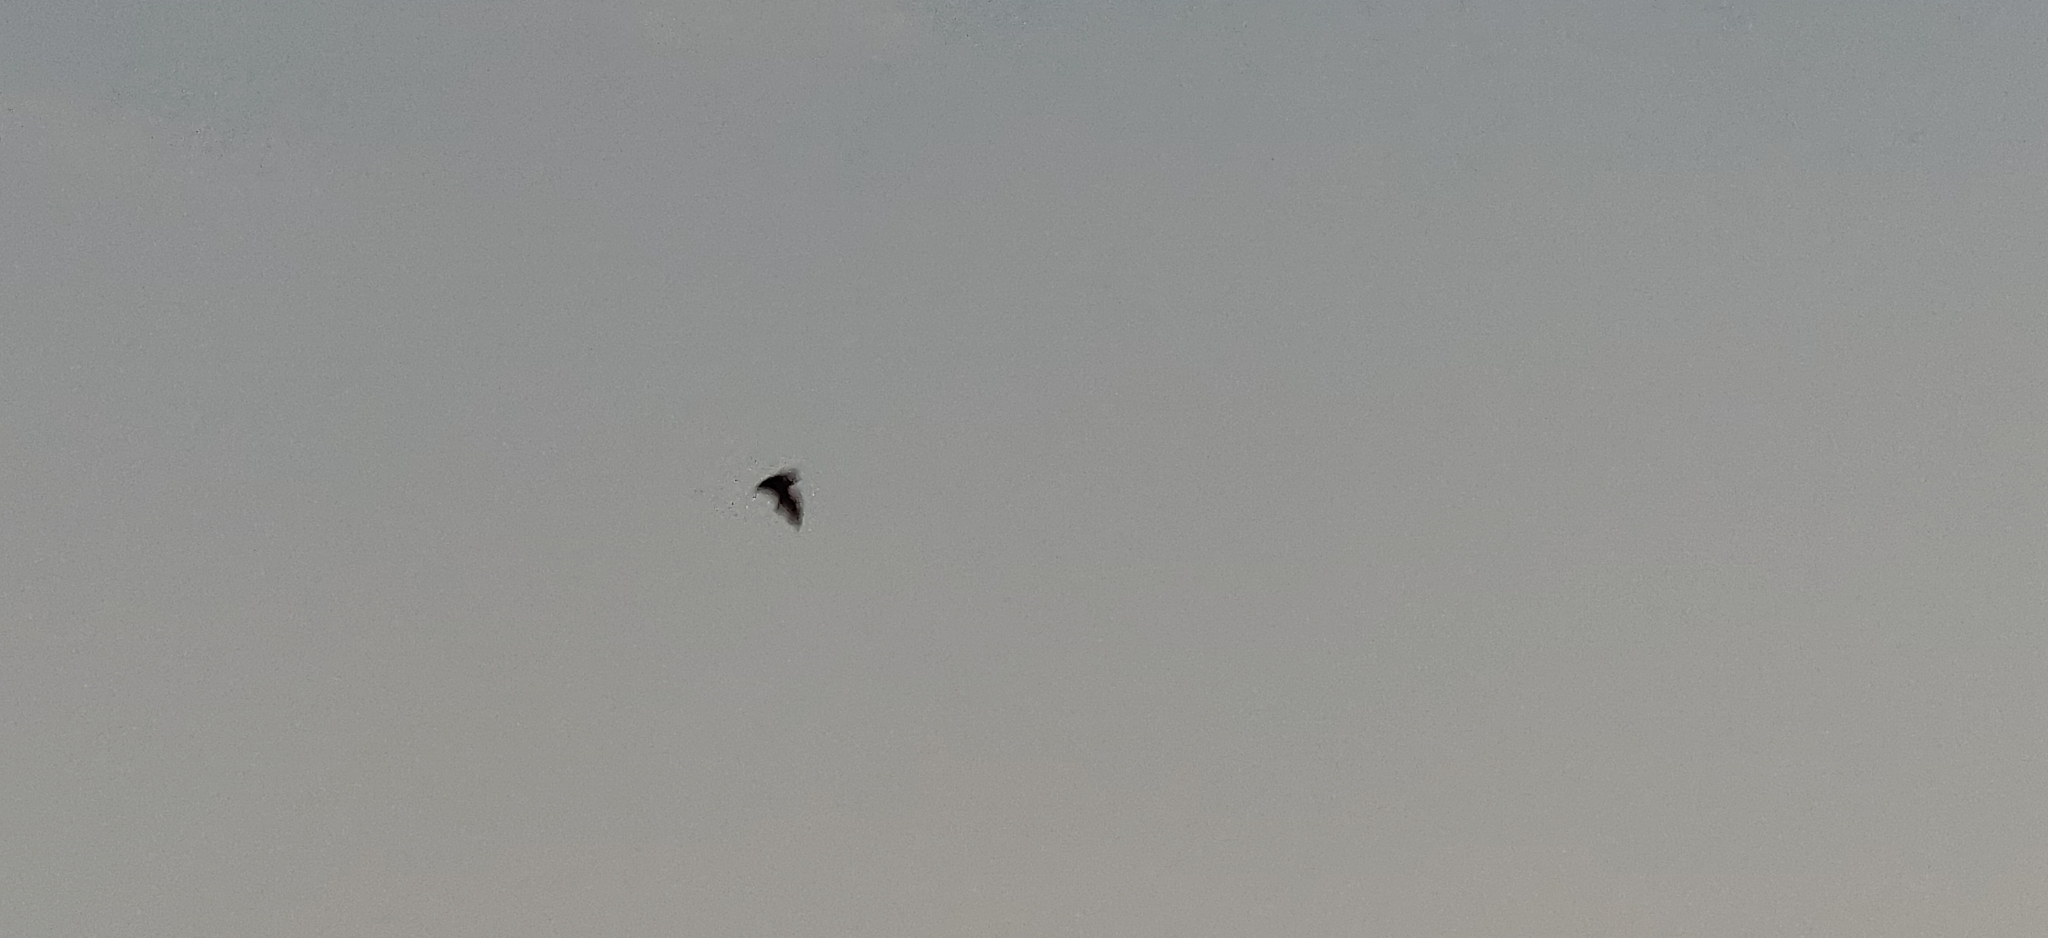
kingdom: Animalia
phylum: Chordata
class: Mammalia
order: Chiroptera
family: Pteropodidae
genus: Pteropus
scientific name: Pteropus vampyrus
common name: Large flying fox
